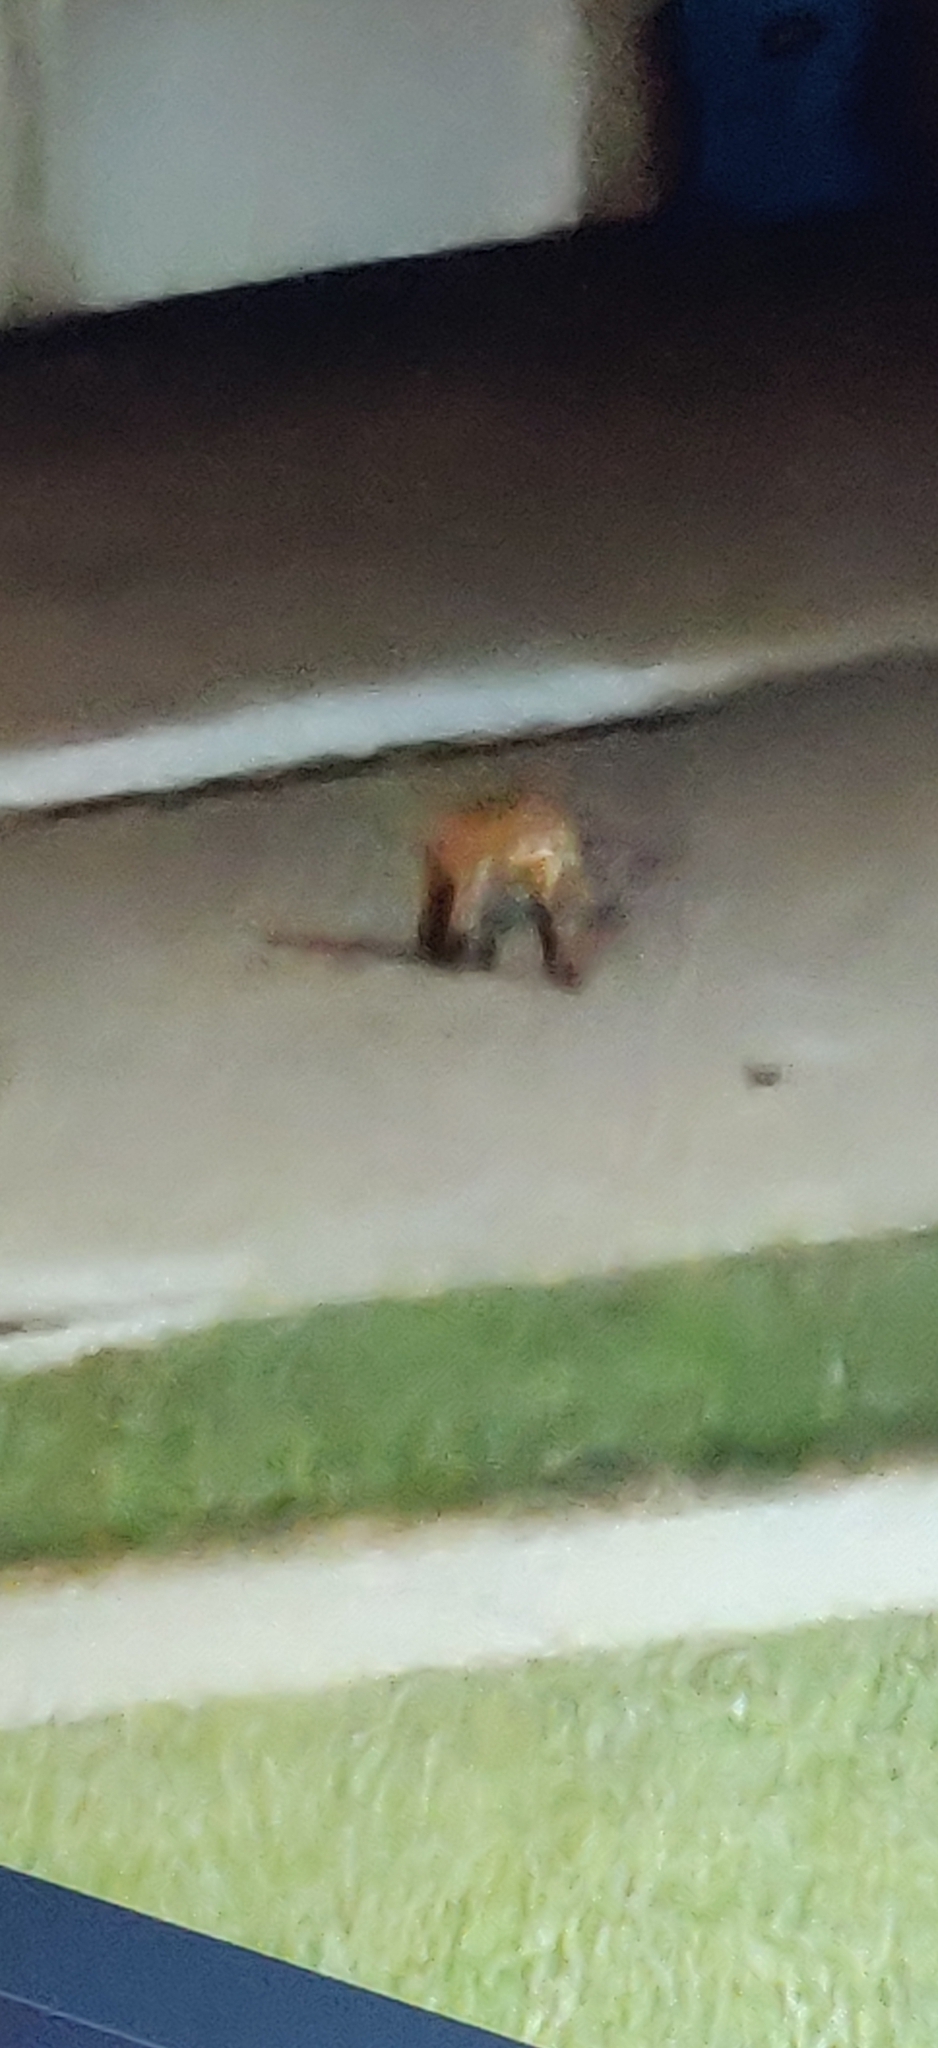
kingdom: Animalia
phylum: Chordata
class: Mammalia
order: Carnivora
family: Canidae
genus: Vulpes
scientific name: Vulpes vulpes
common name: Red fox
